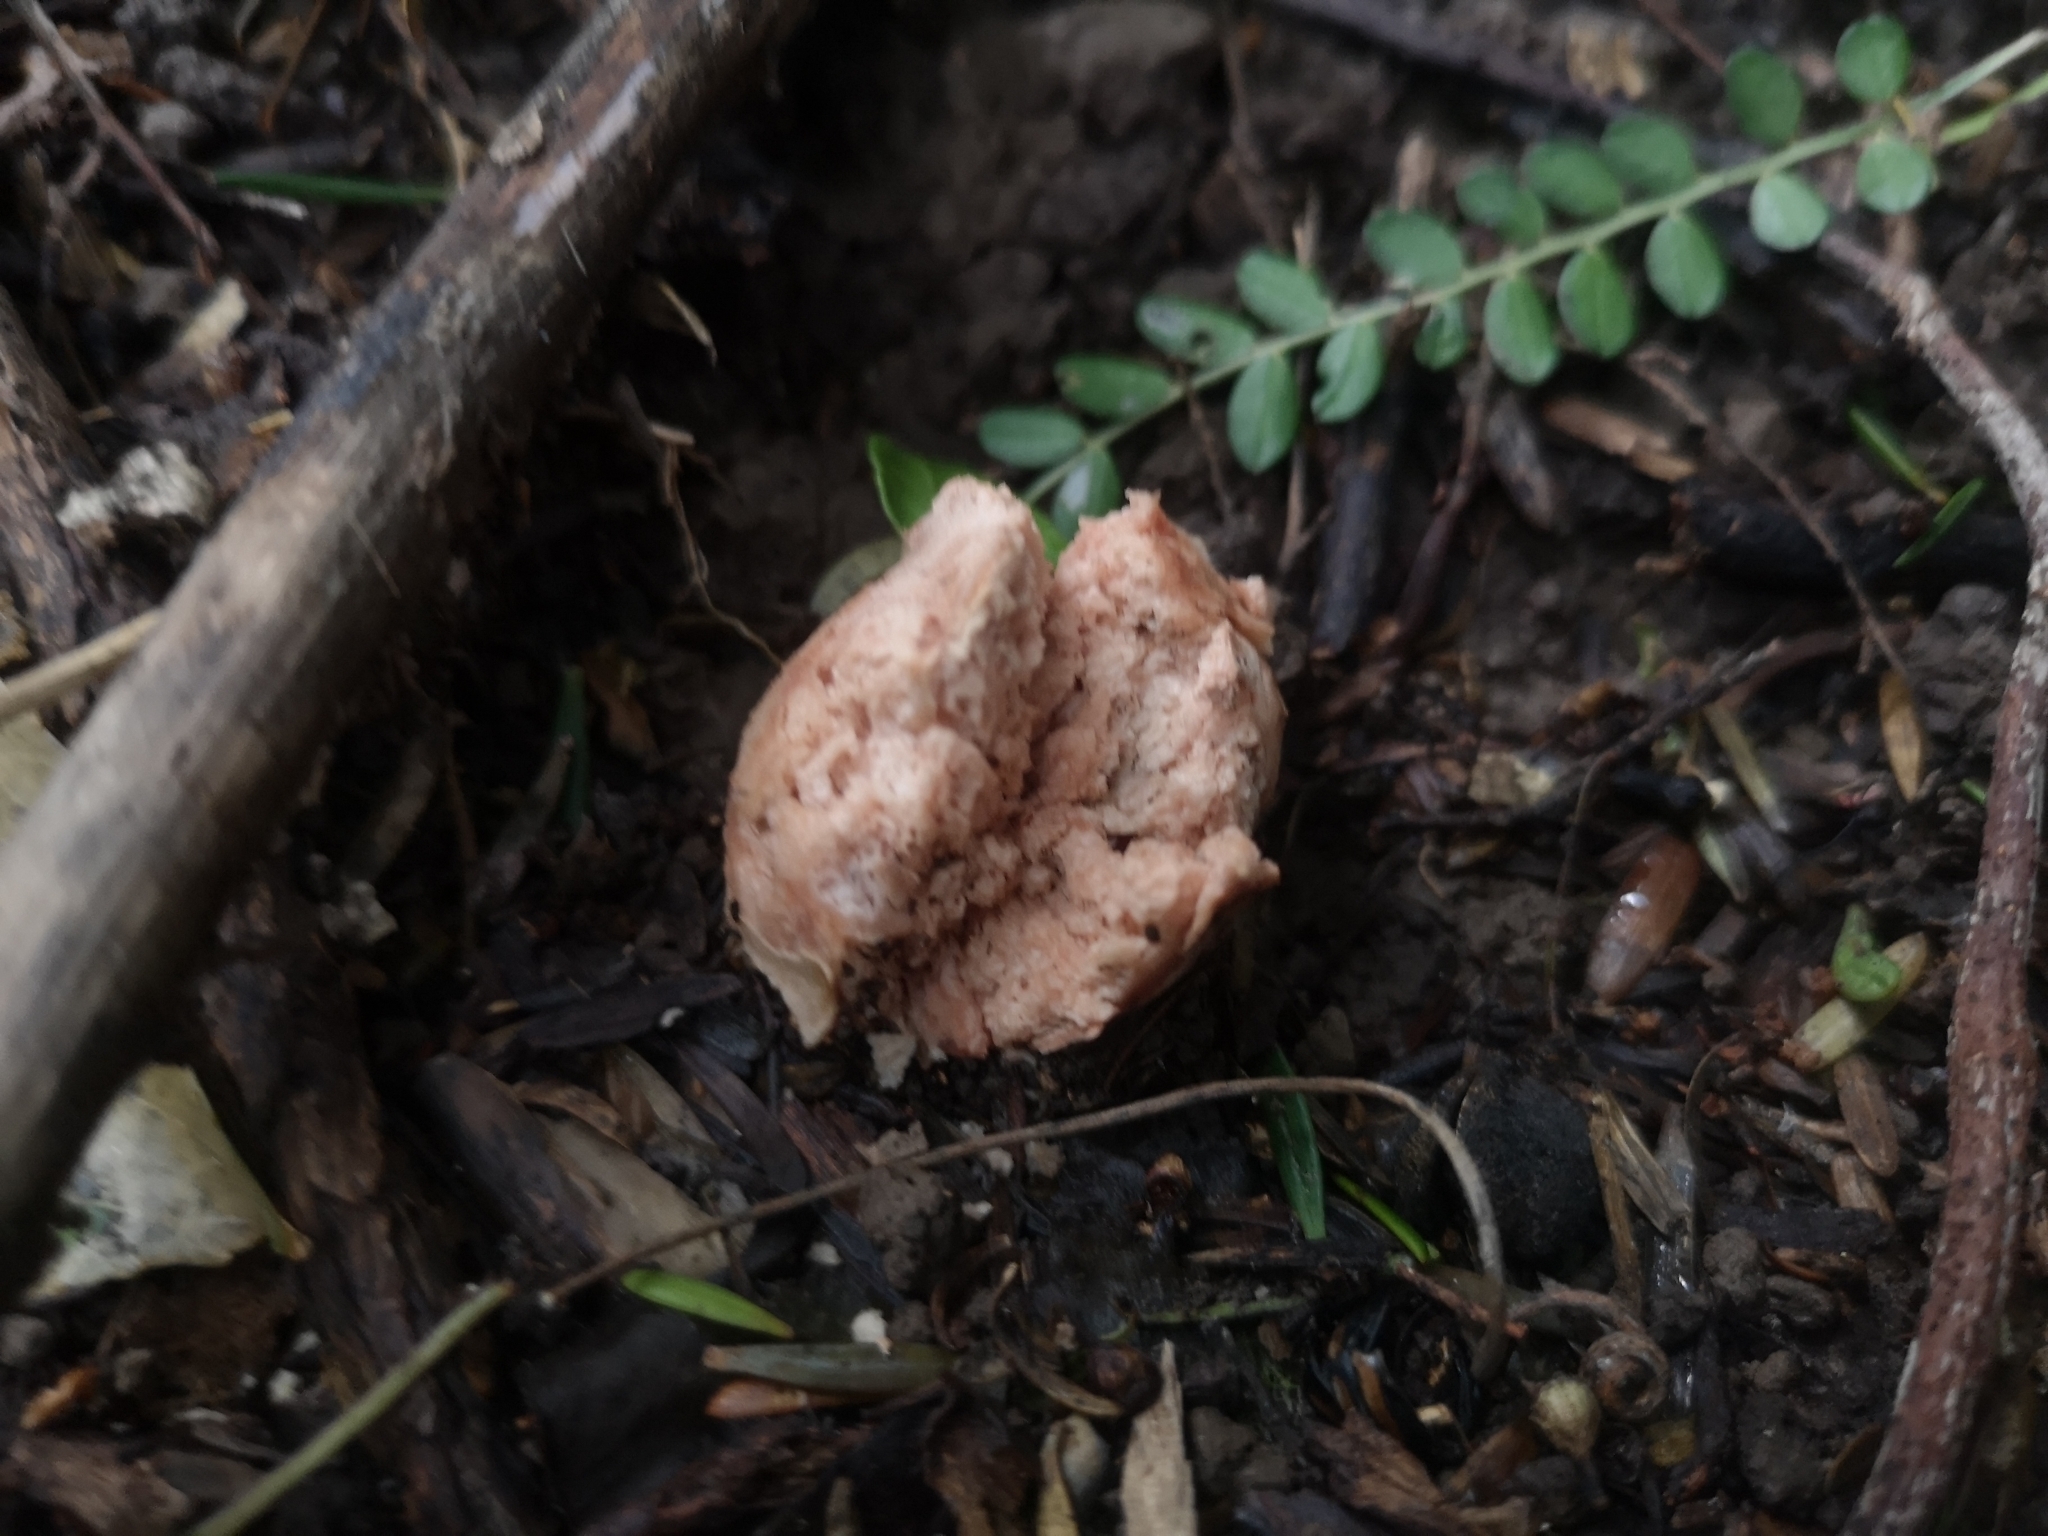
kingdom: Fungi
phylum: Basidiomycota
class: Agaricomycetes
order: Agaricales
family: Hydnangiaceae
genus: Hydnangium
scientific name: Hydnangium kanuka
